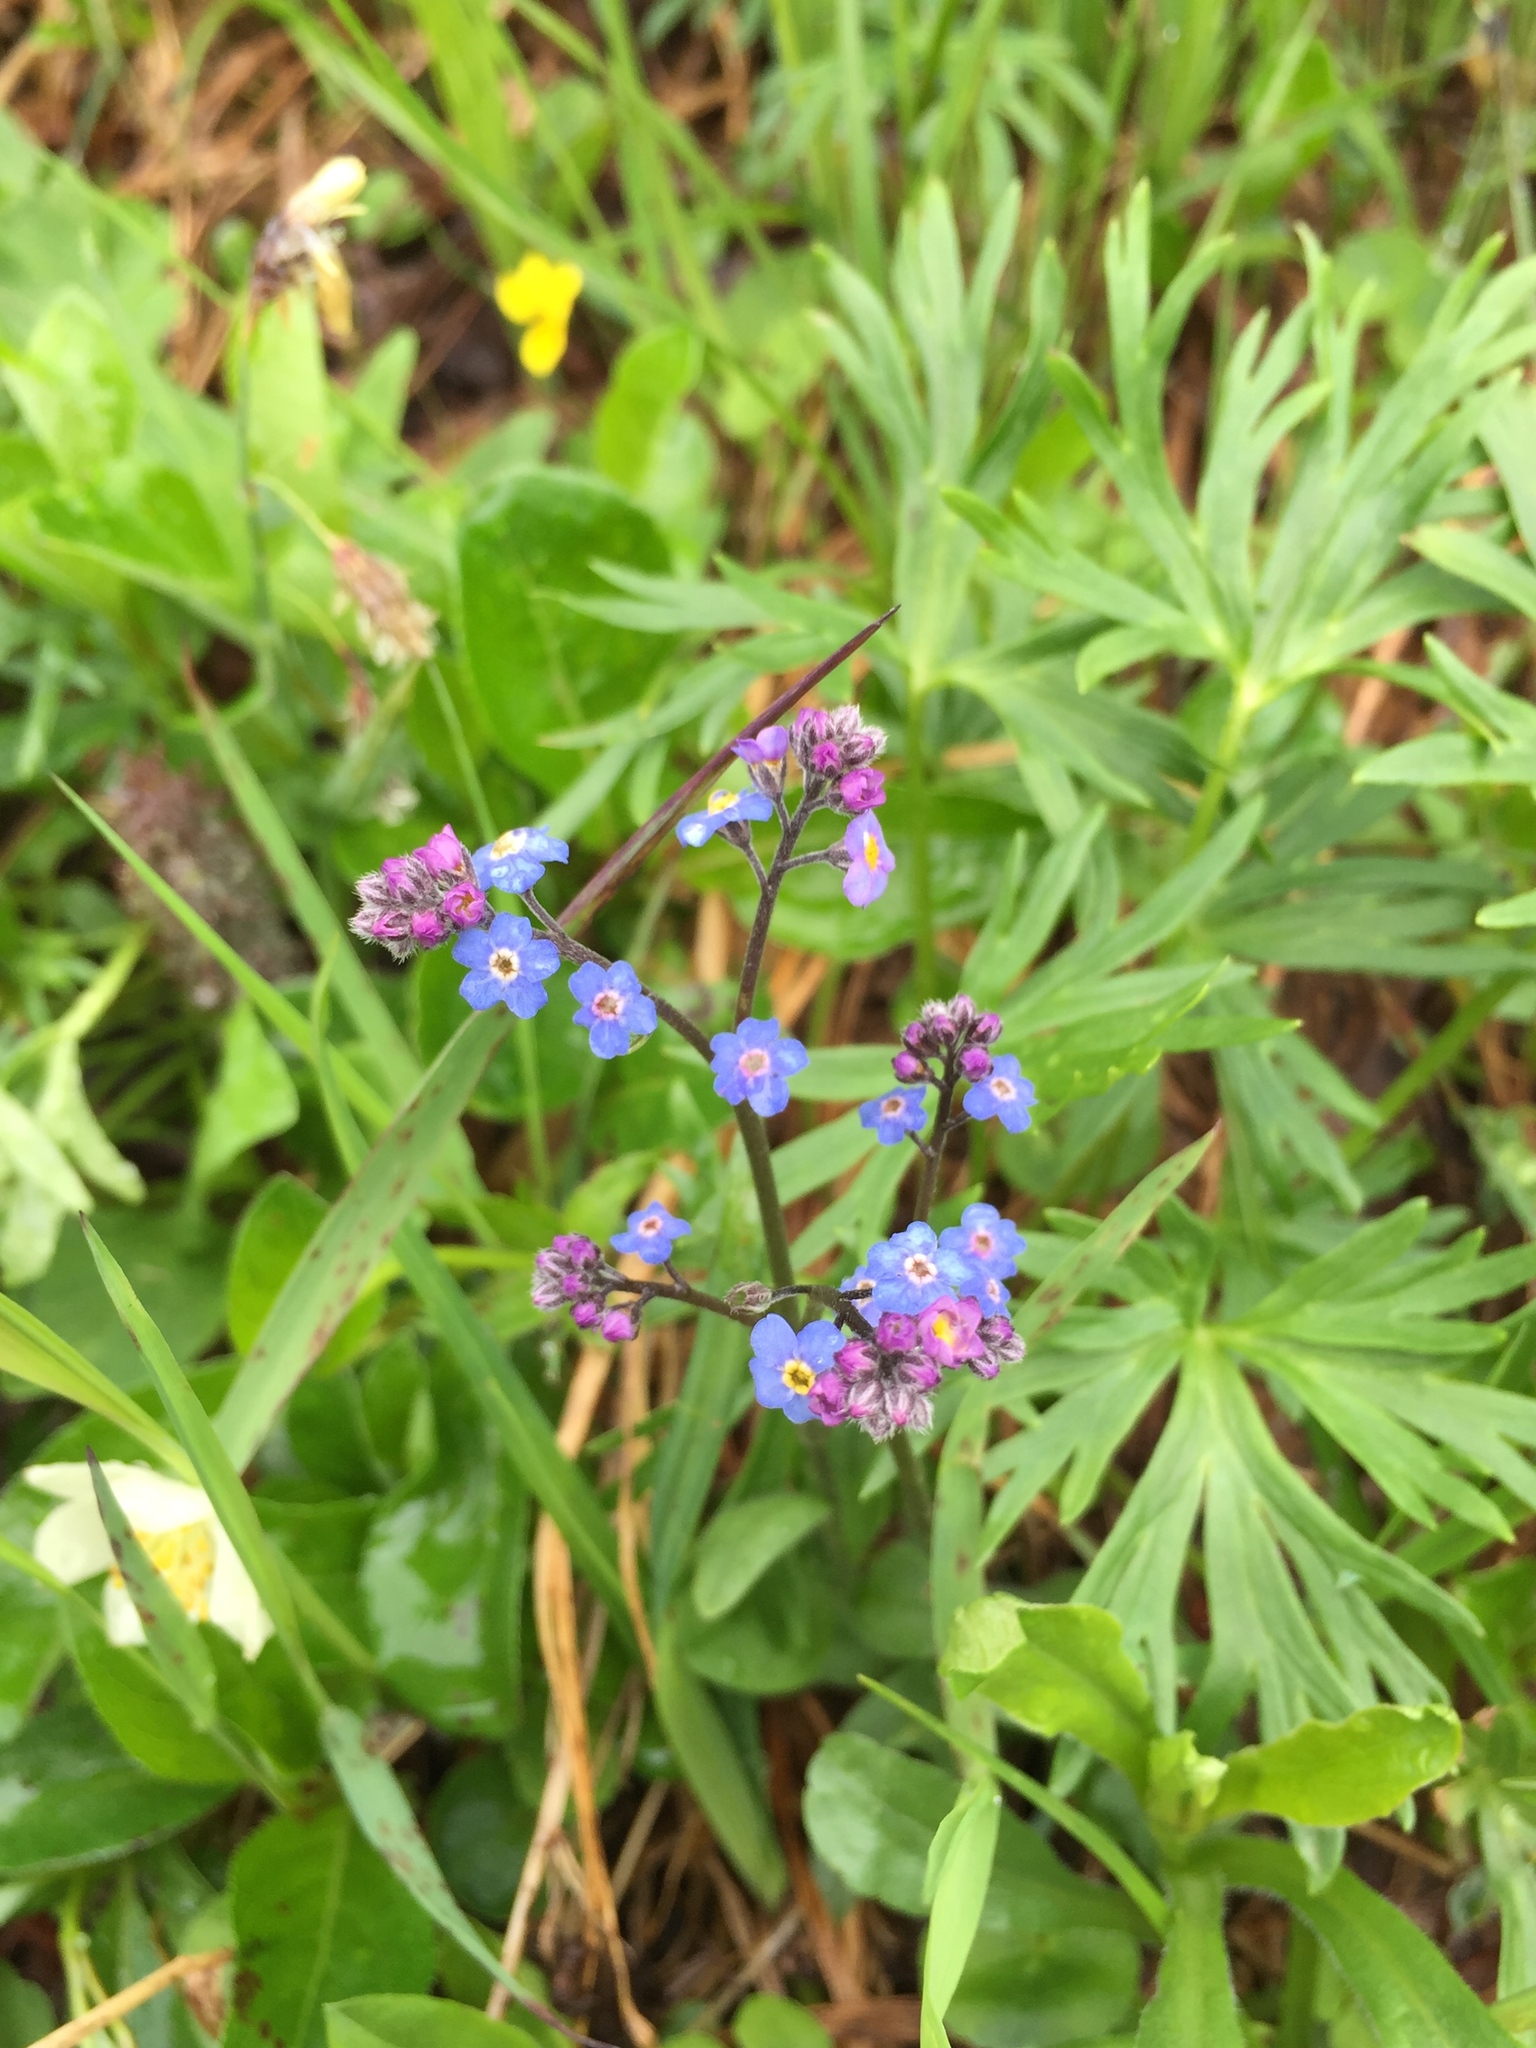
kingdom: Plantae
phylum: Tracheophyta
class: Magnoliopsida
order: Boraginales
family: Boraginaceae
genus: Myosotis
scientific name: Myosotis asiatica
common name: Asian forget-me-not
